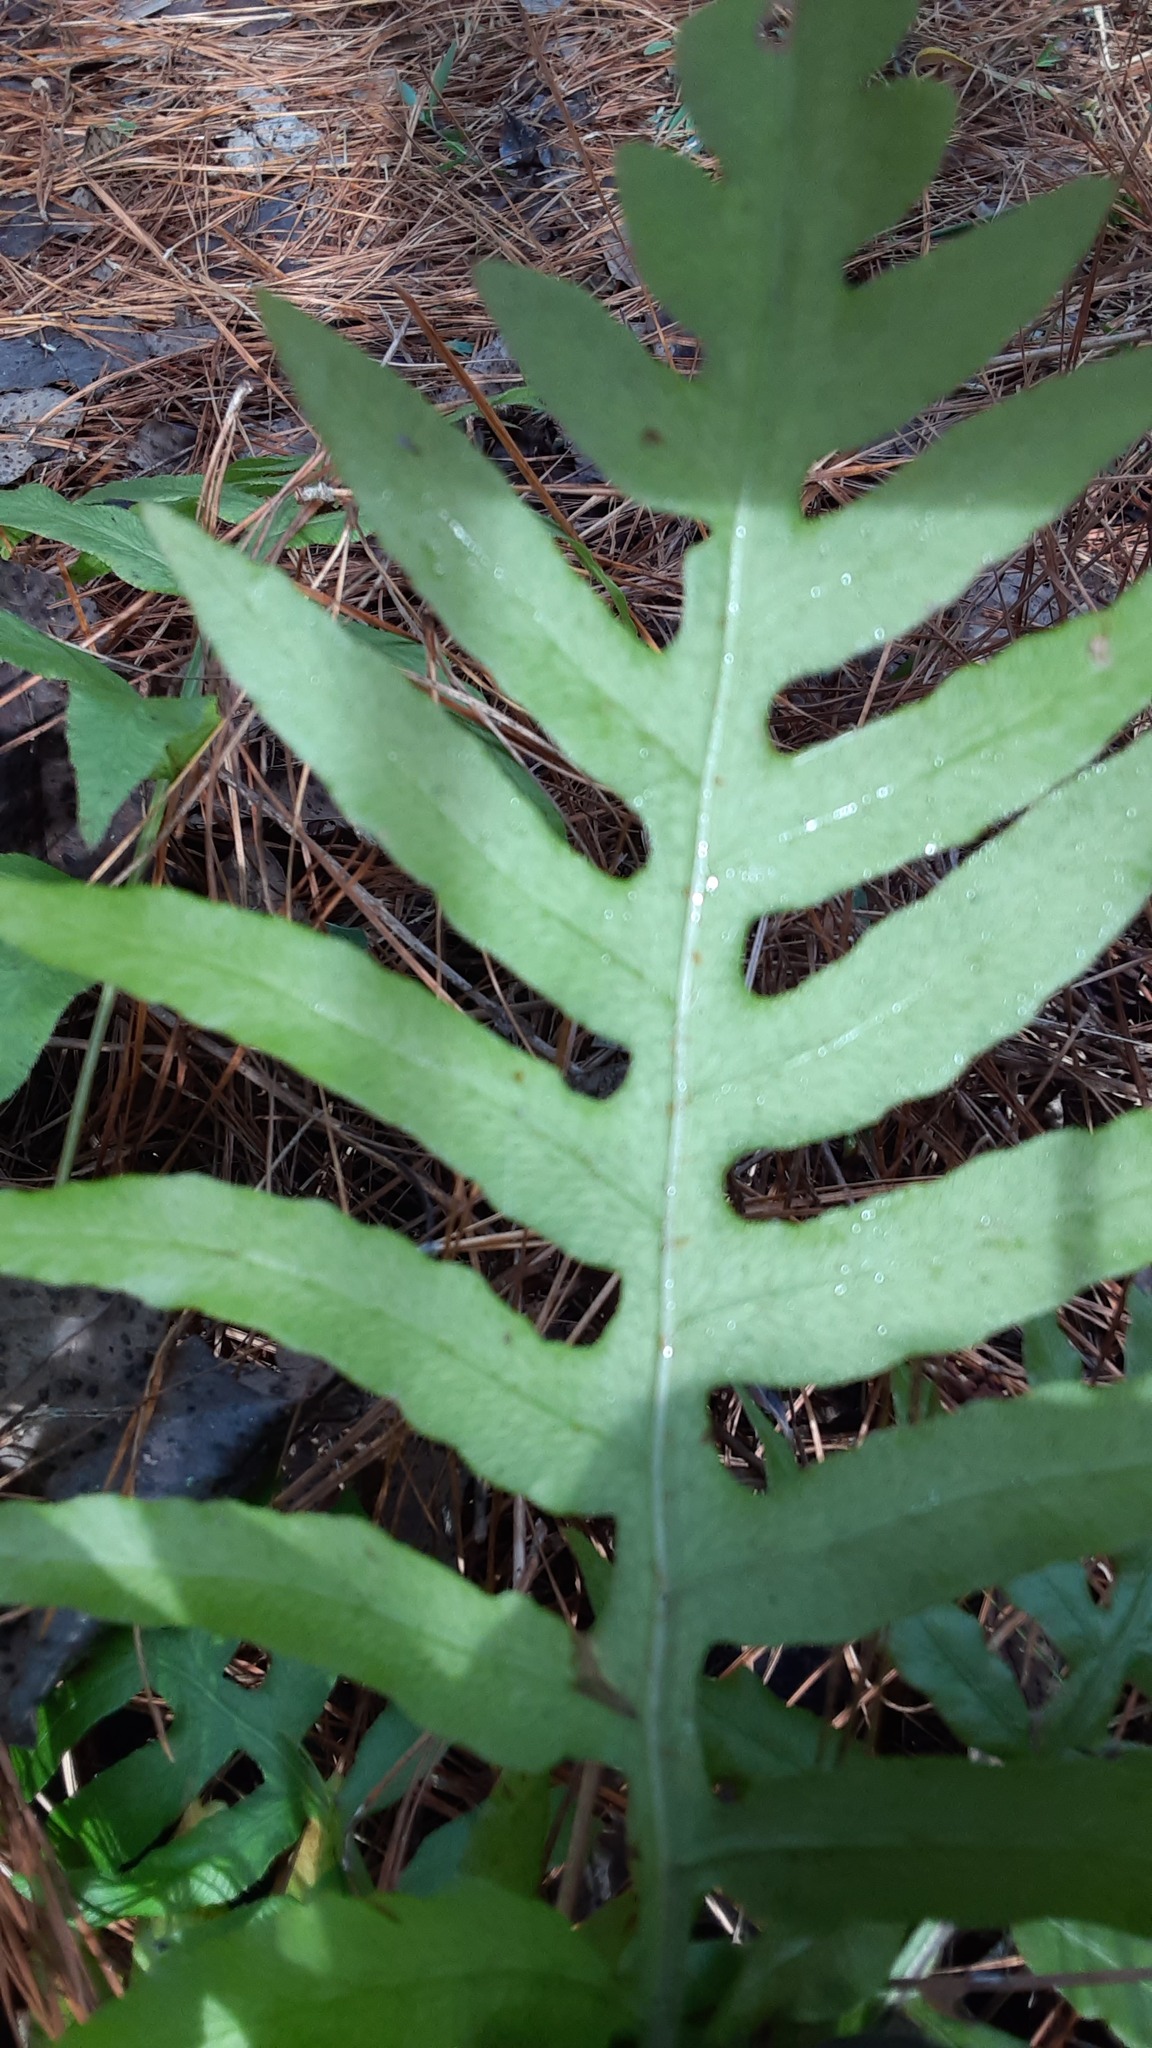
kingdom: Plantae
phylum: Tracheophyta
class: Polypodiopsida
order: Polypodiales
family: Blechnaceae
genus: Lorinseria
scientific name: Lorinseria areolata
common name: Dwarf chain fern
